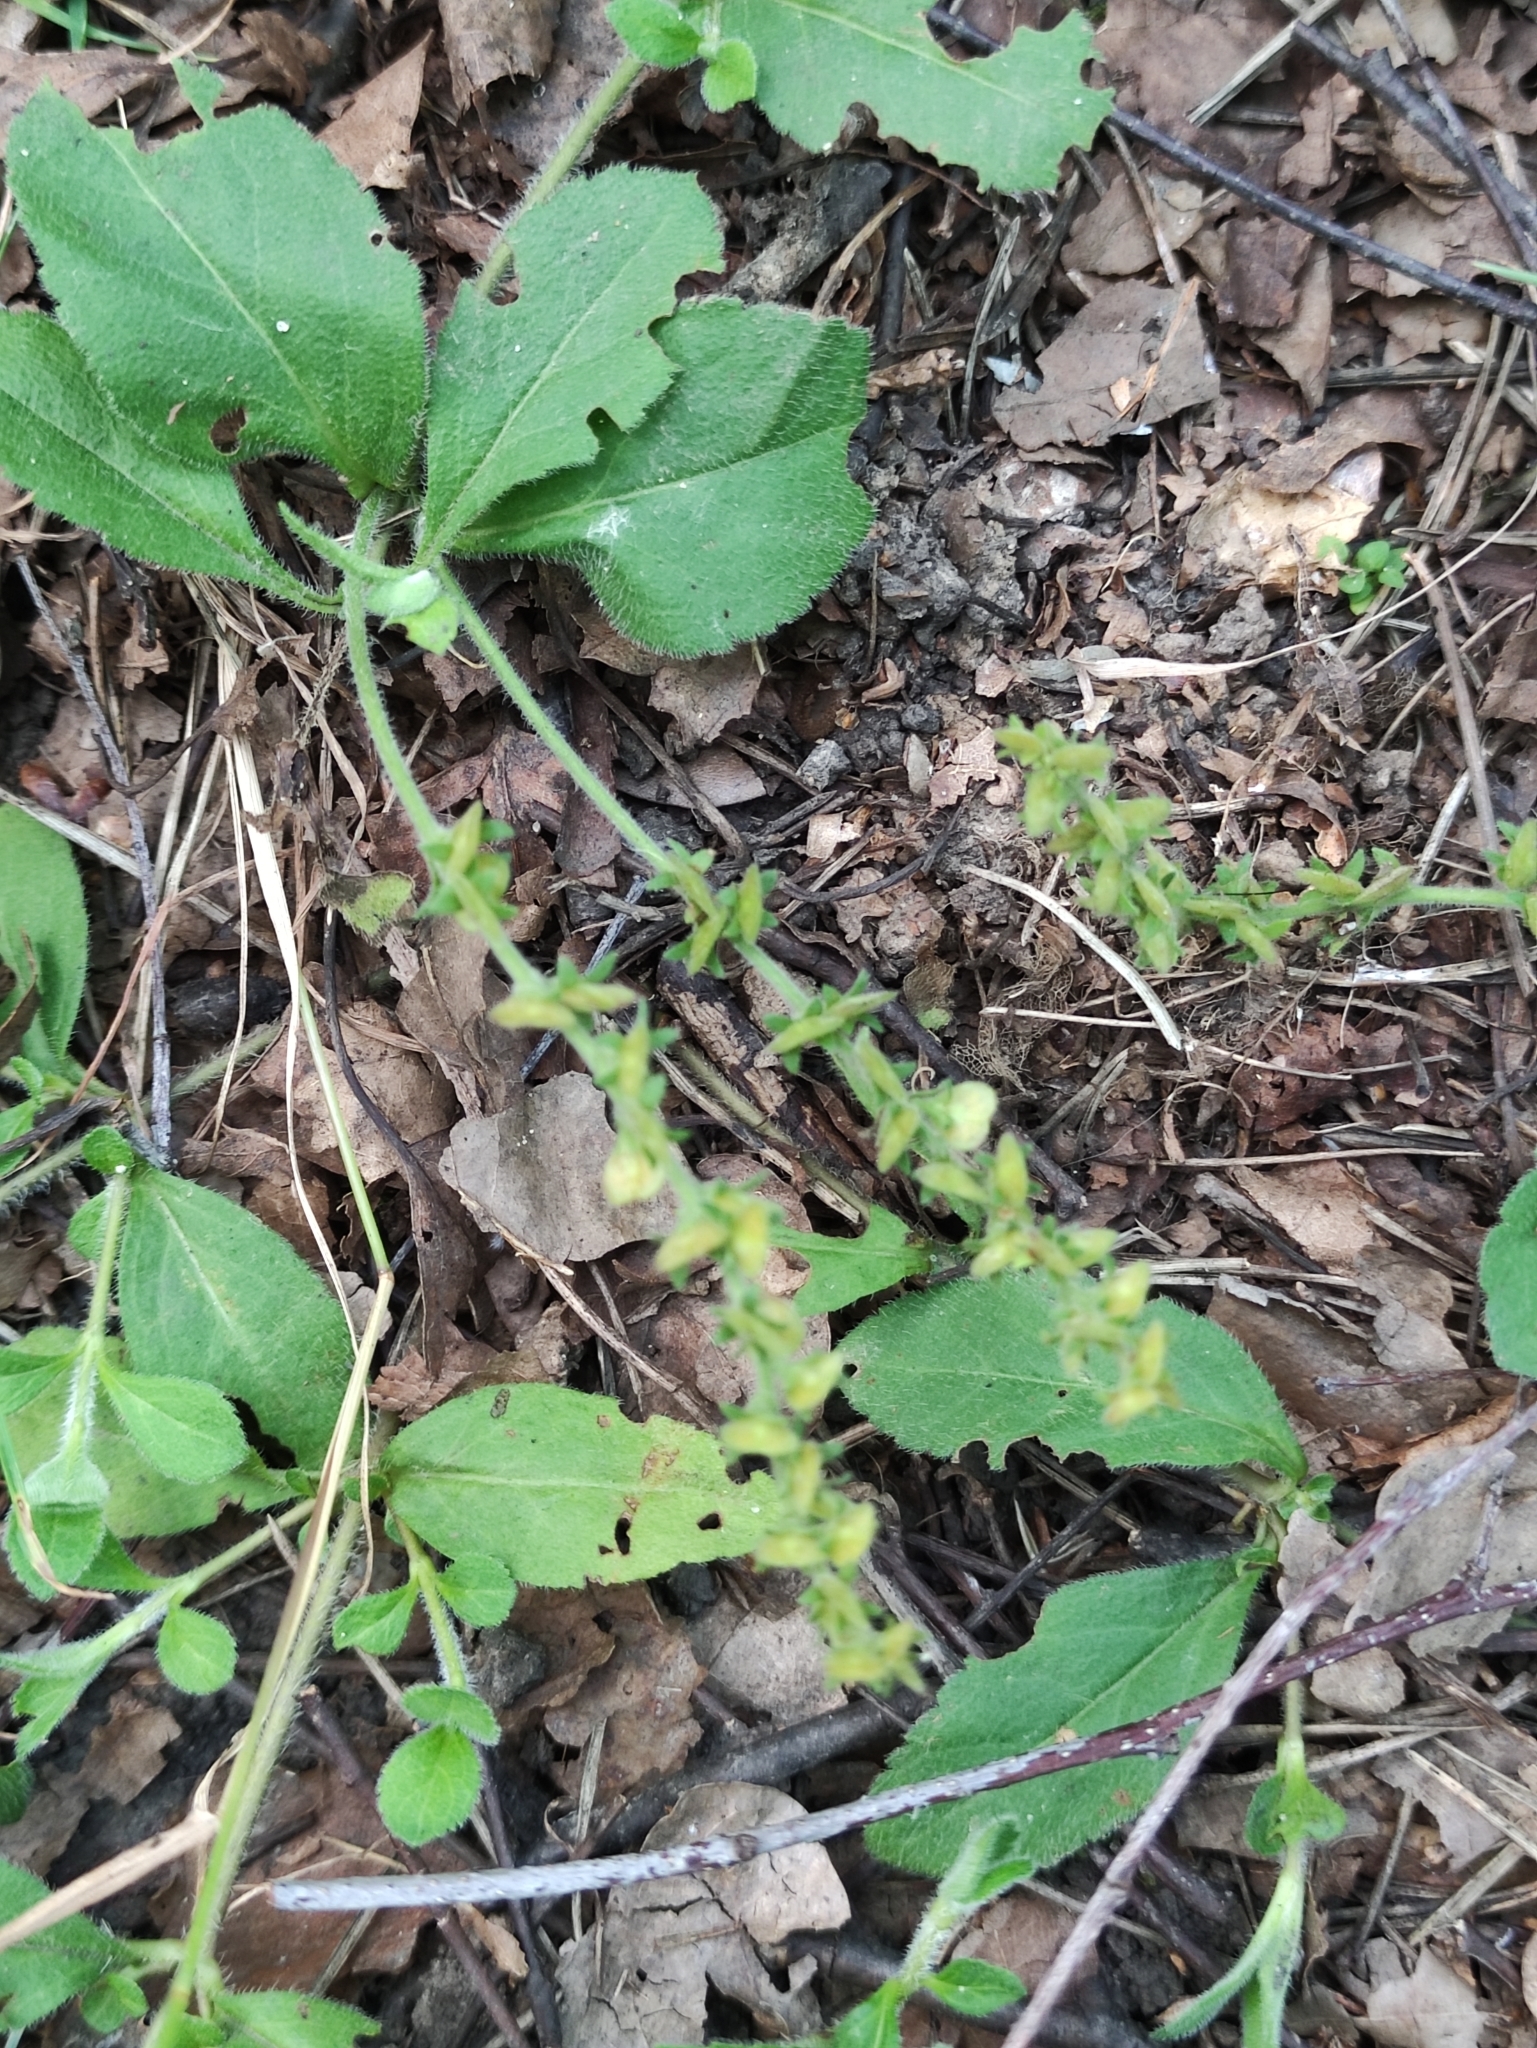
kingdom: Plantae
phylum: Tracheophyta
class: Magnoliopsida
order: Lamiales
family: Plantaginaceae
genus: Veronica
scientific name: Veronica officinalis
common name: Common speedwell
